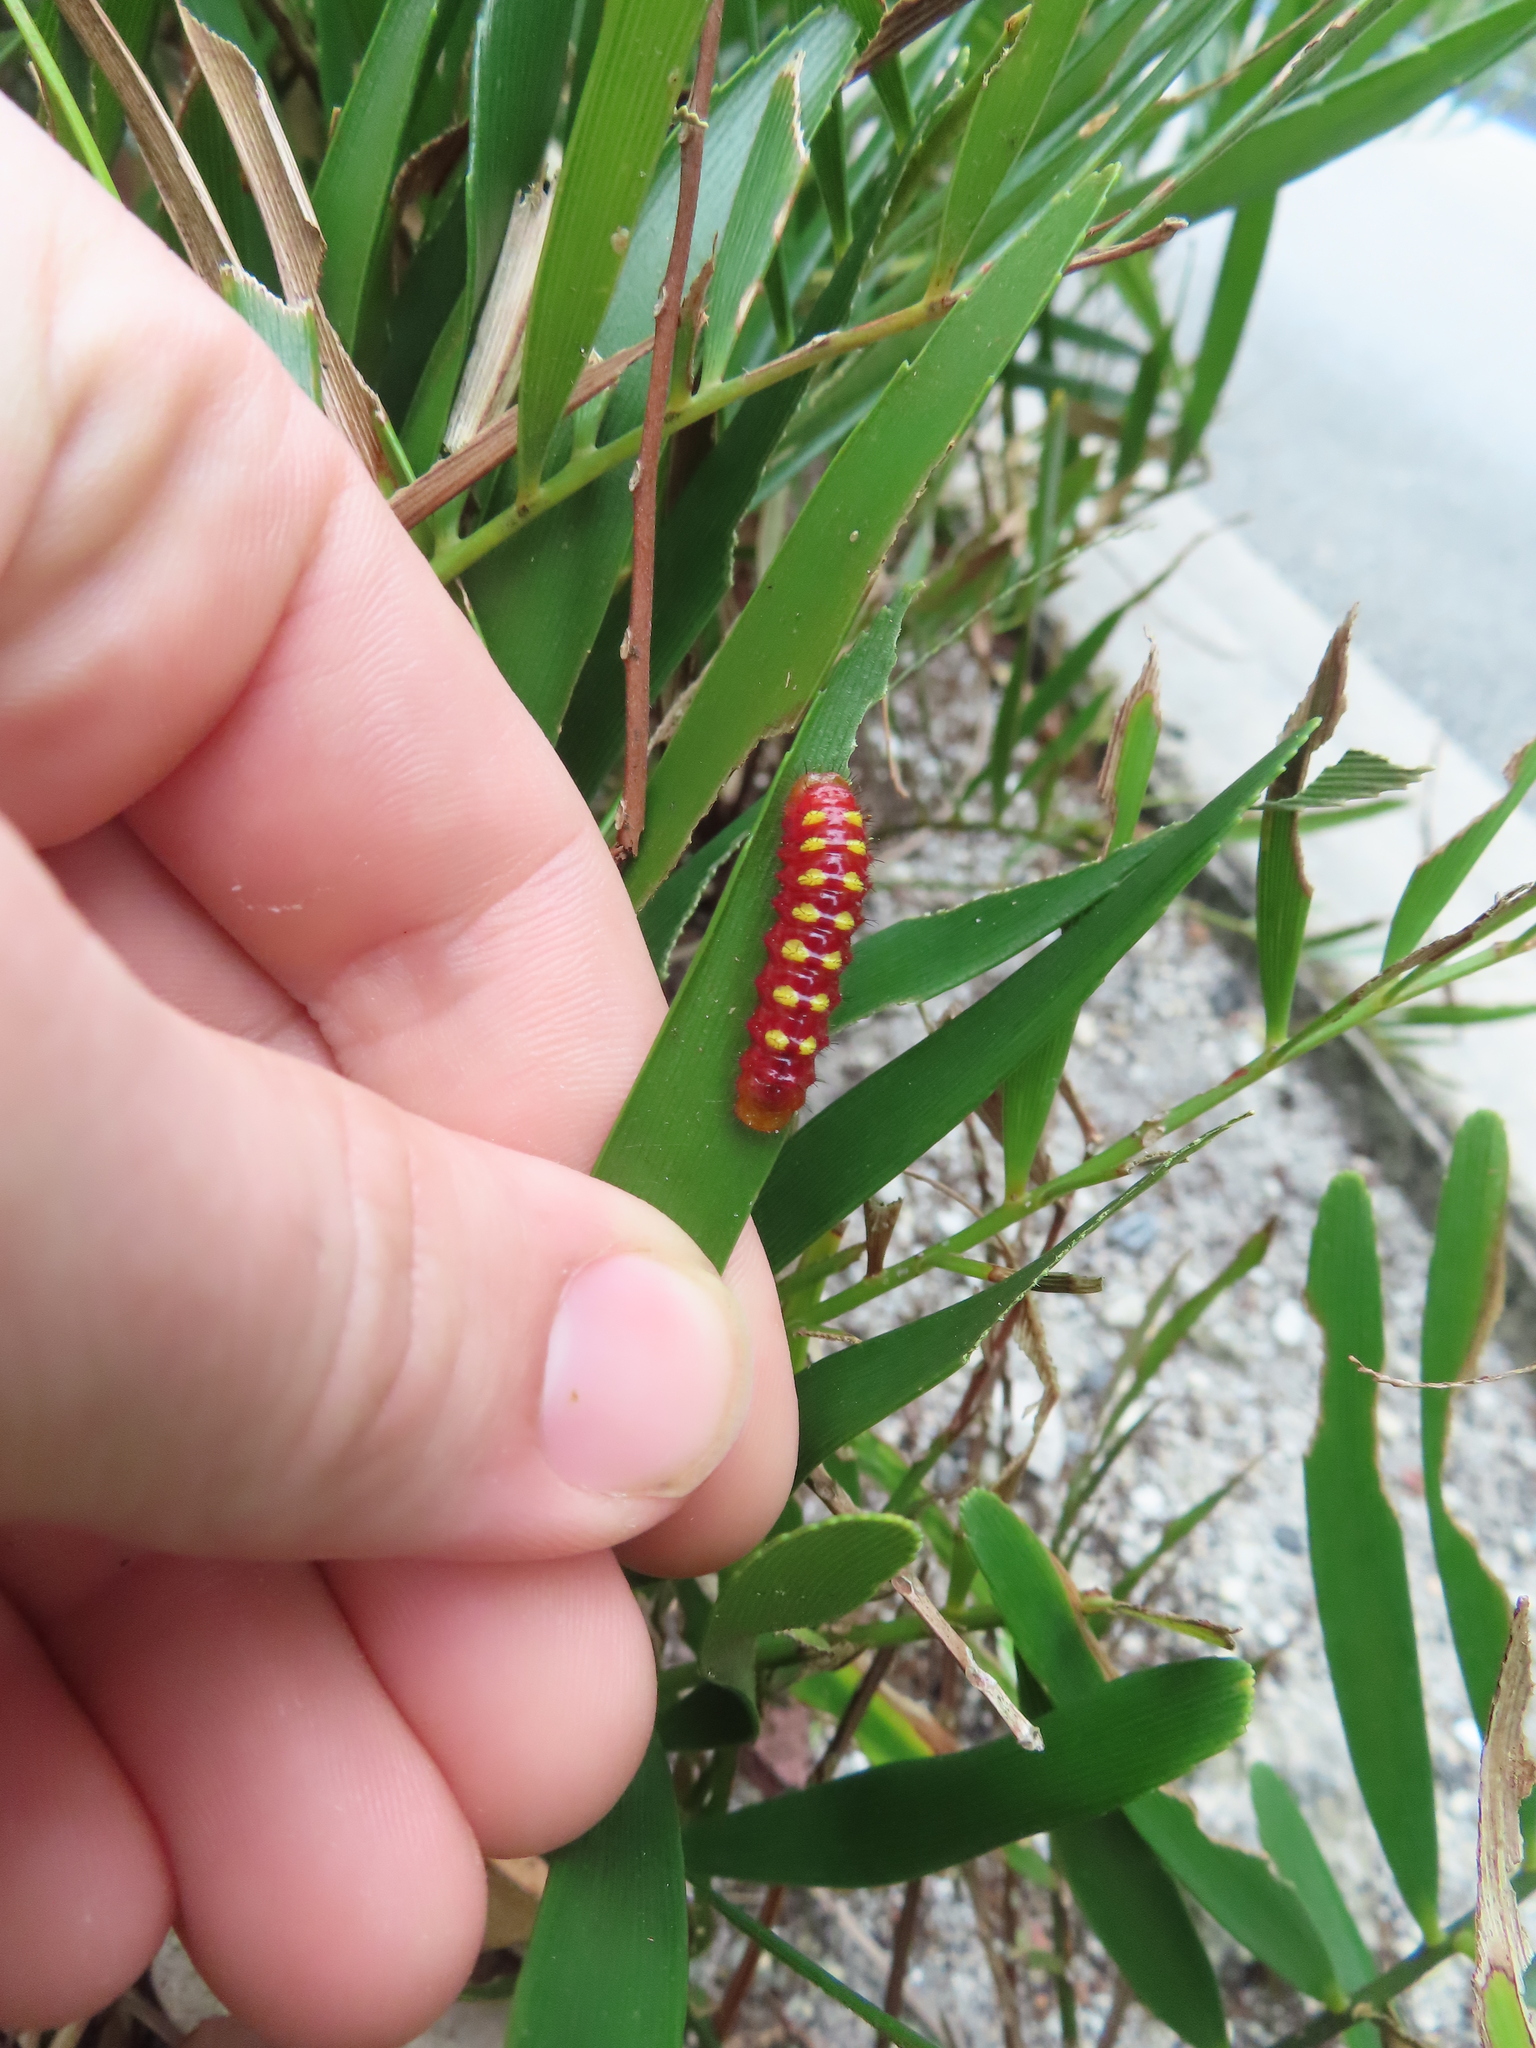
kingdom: Animalia
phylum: Arthropoda
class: Insecta
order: Lepidoptera
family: Lycaenidae
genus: Eumaeus
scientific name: Eumaeus atala
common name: Atala
